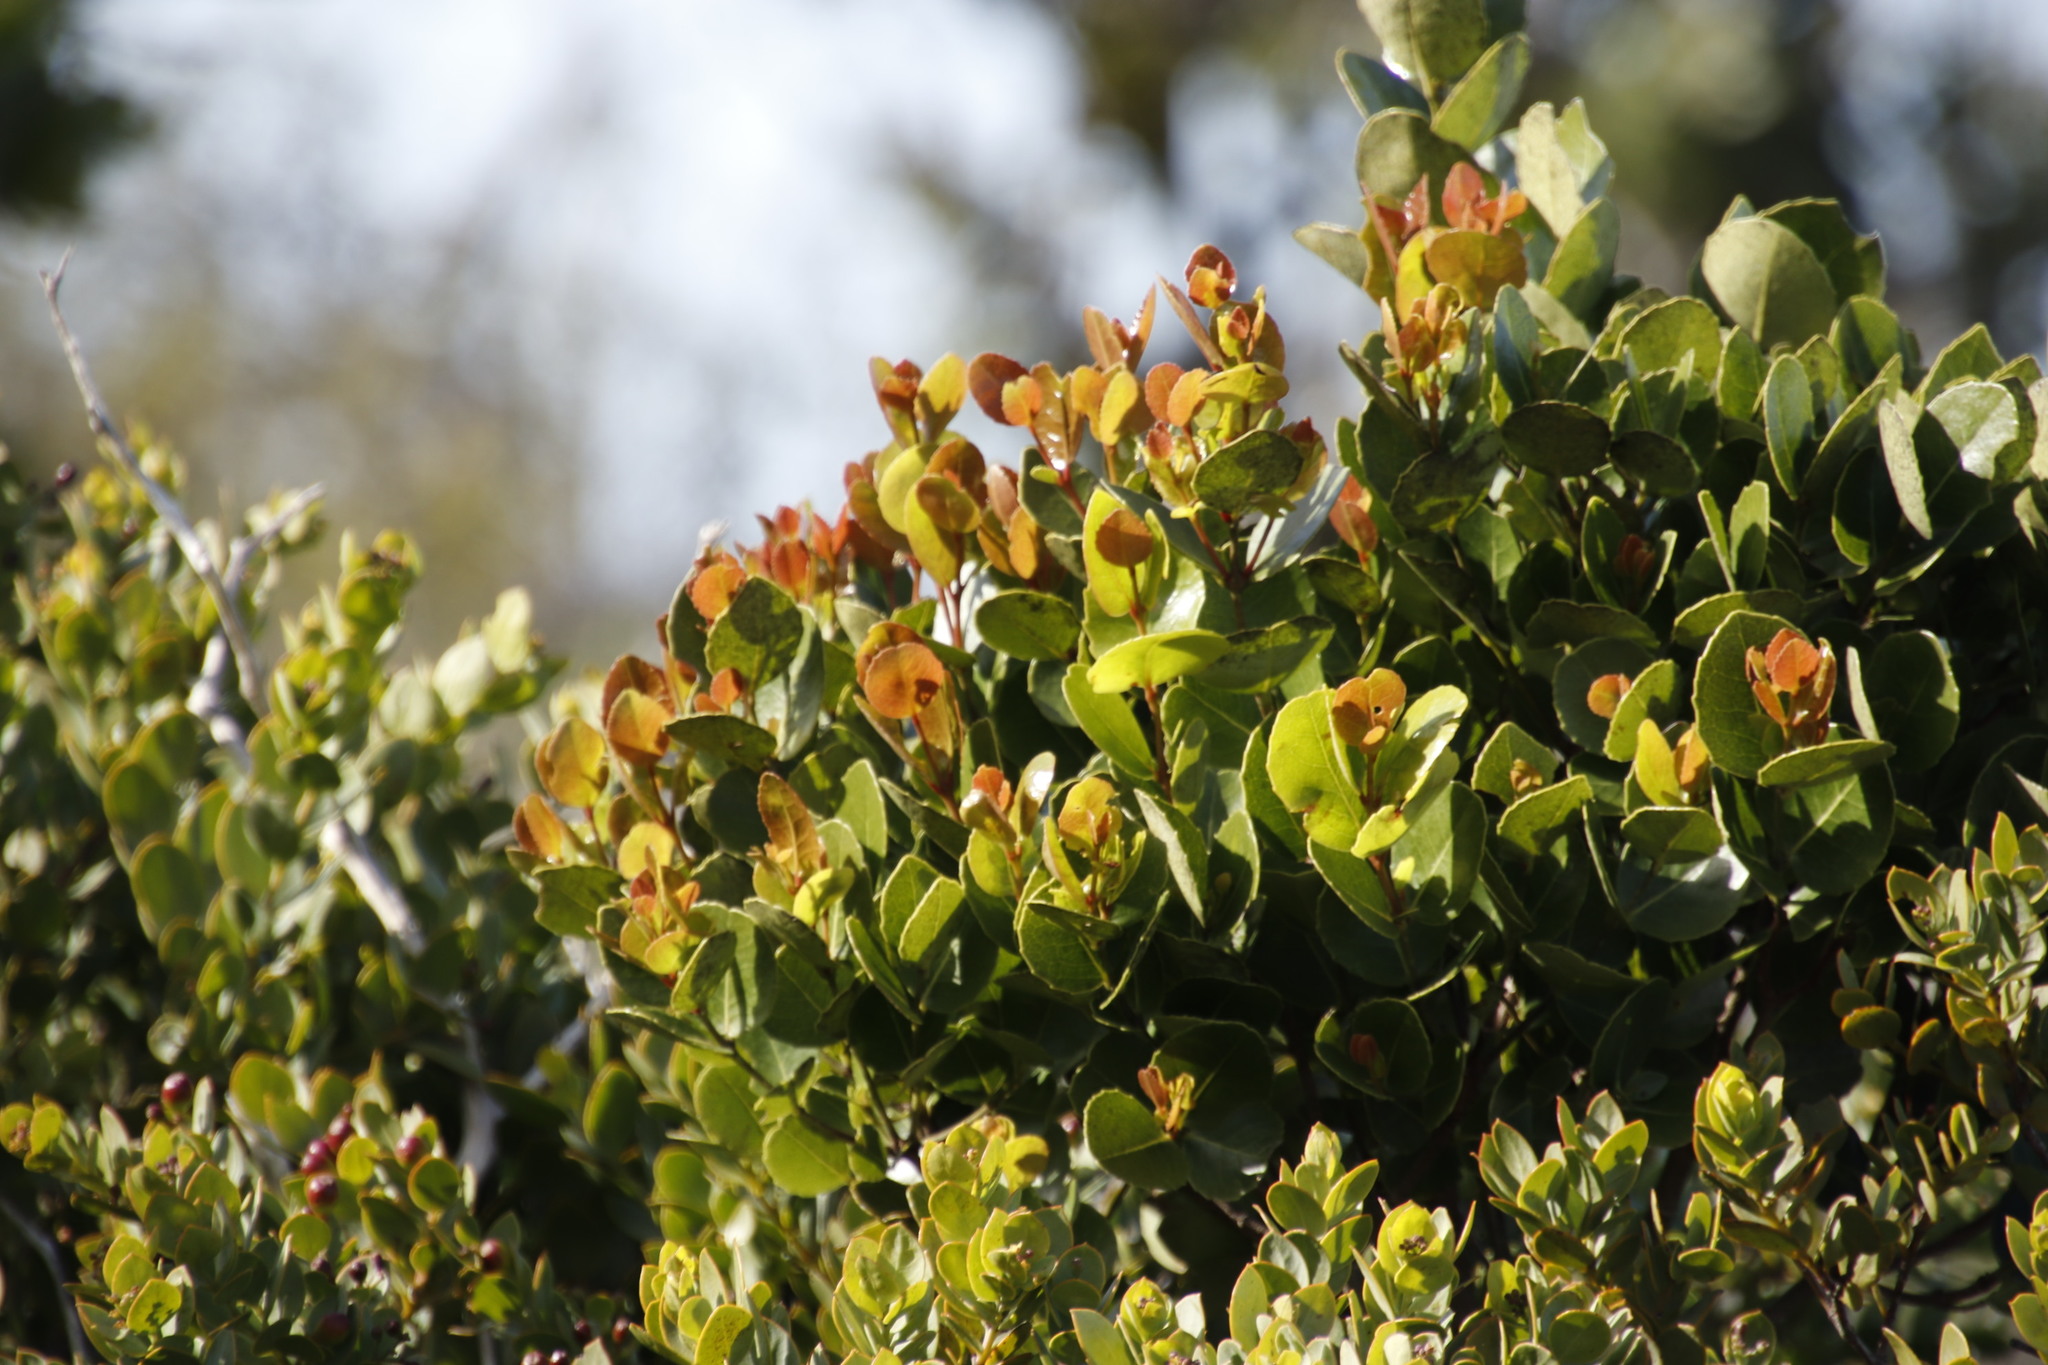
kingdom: Plantae
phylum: Tracheophyta
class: Magnoliopsida
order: Celastrales
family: Celastraceae
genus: Cassine
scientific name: Cassine peragua
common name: Cape saffron
